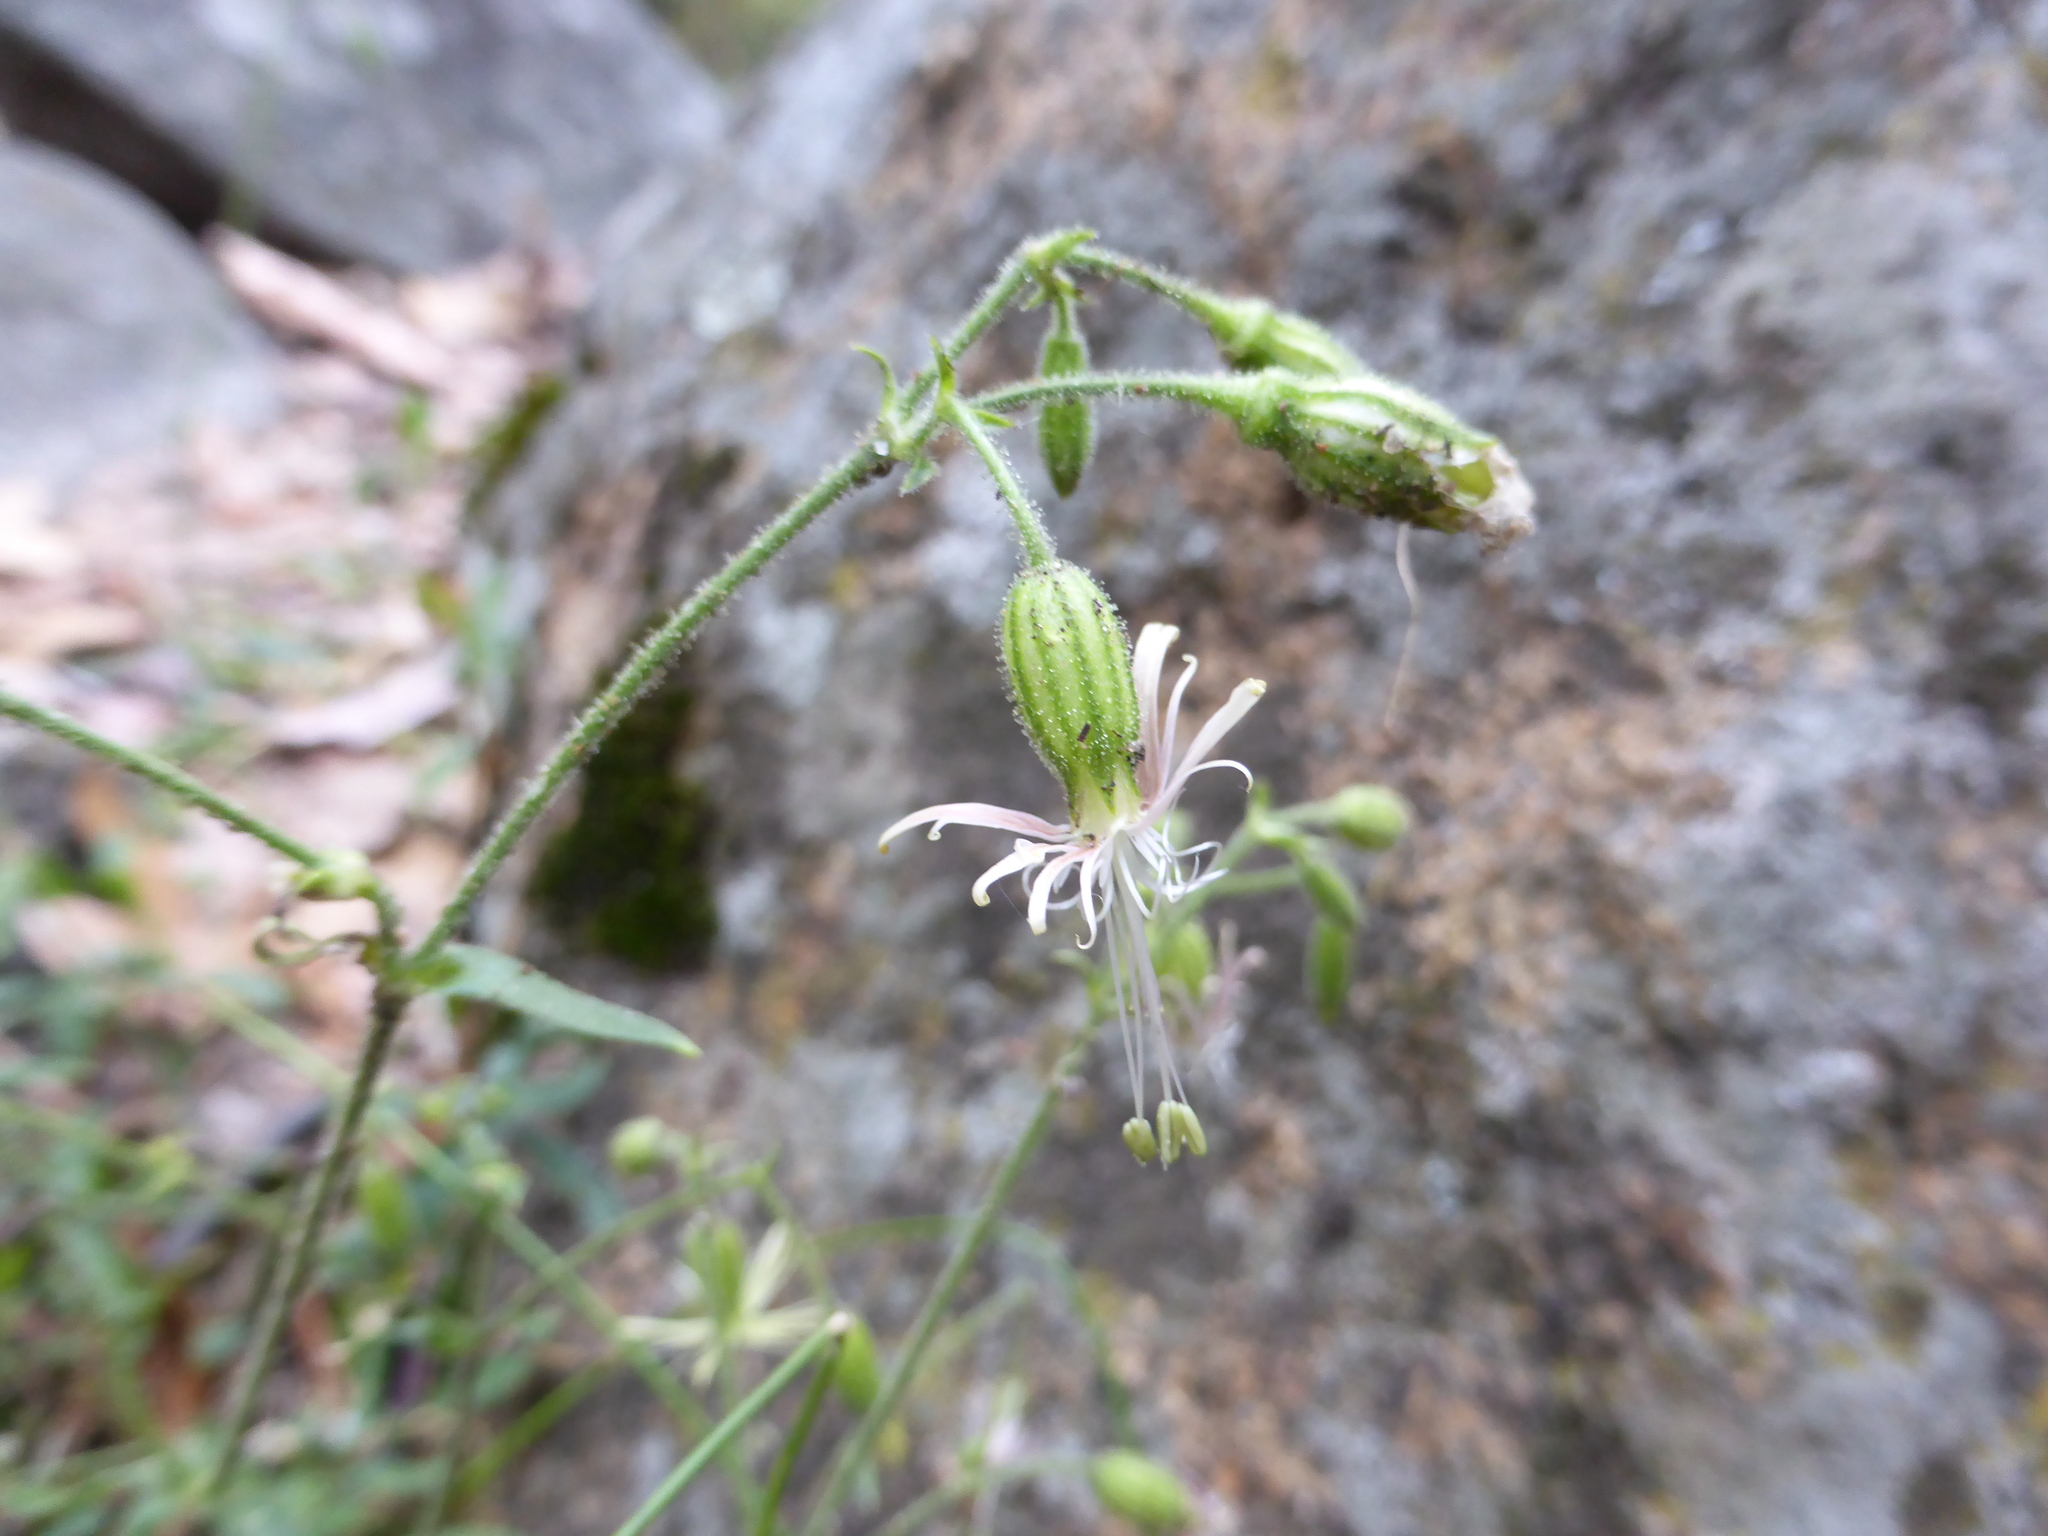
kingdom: Plantae
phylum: Tracheophyta
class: Magnoliopsida
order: Caryophyllales
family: Caryophyllaceae
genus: Silene
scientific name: Silene lemmonii
